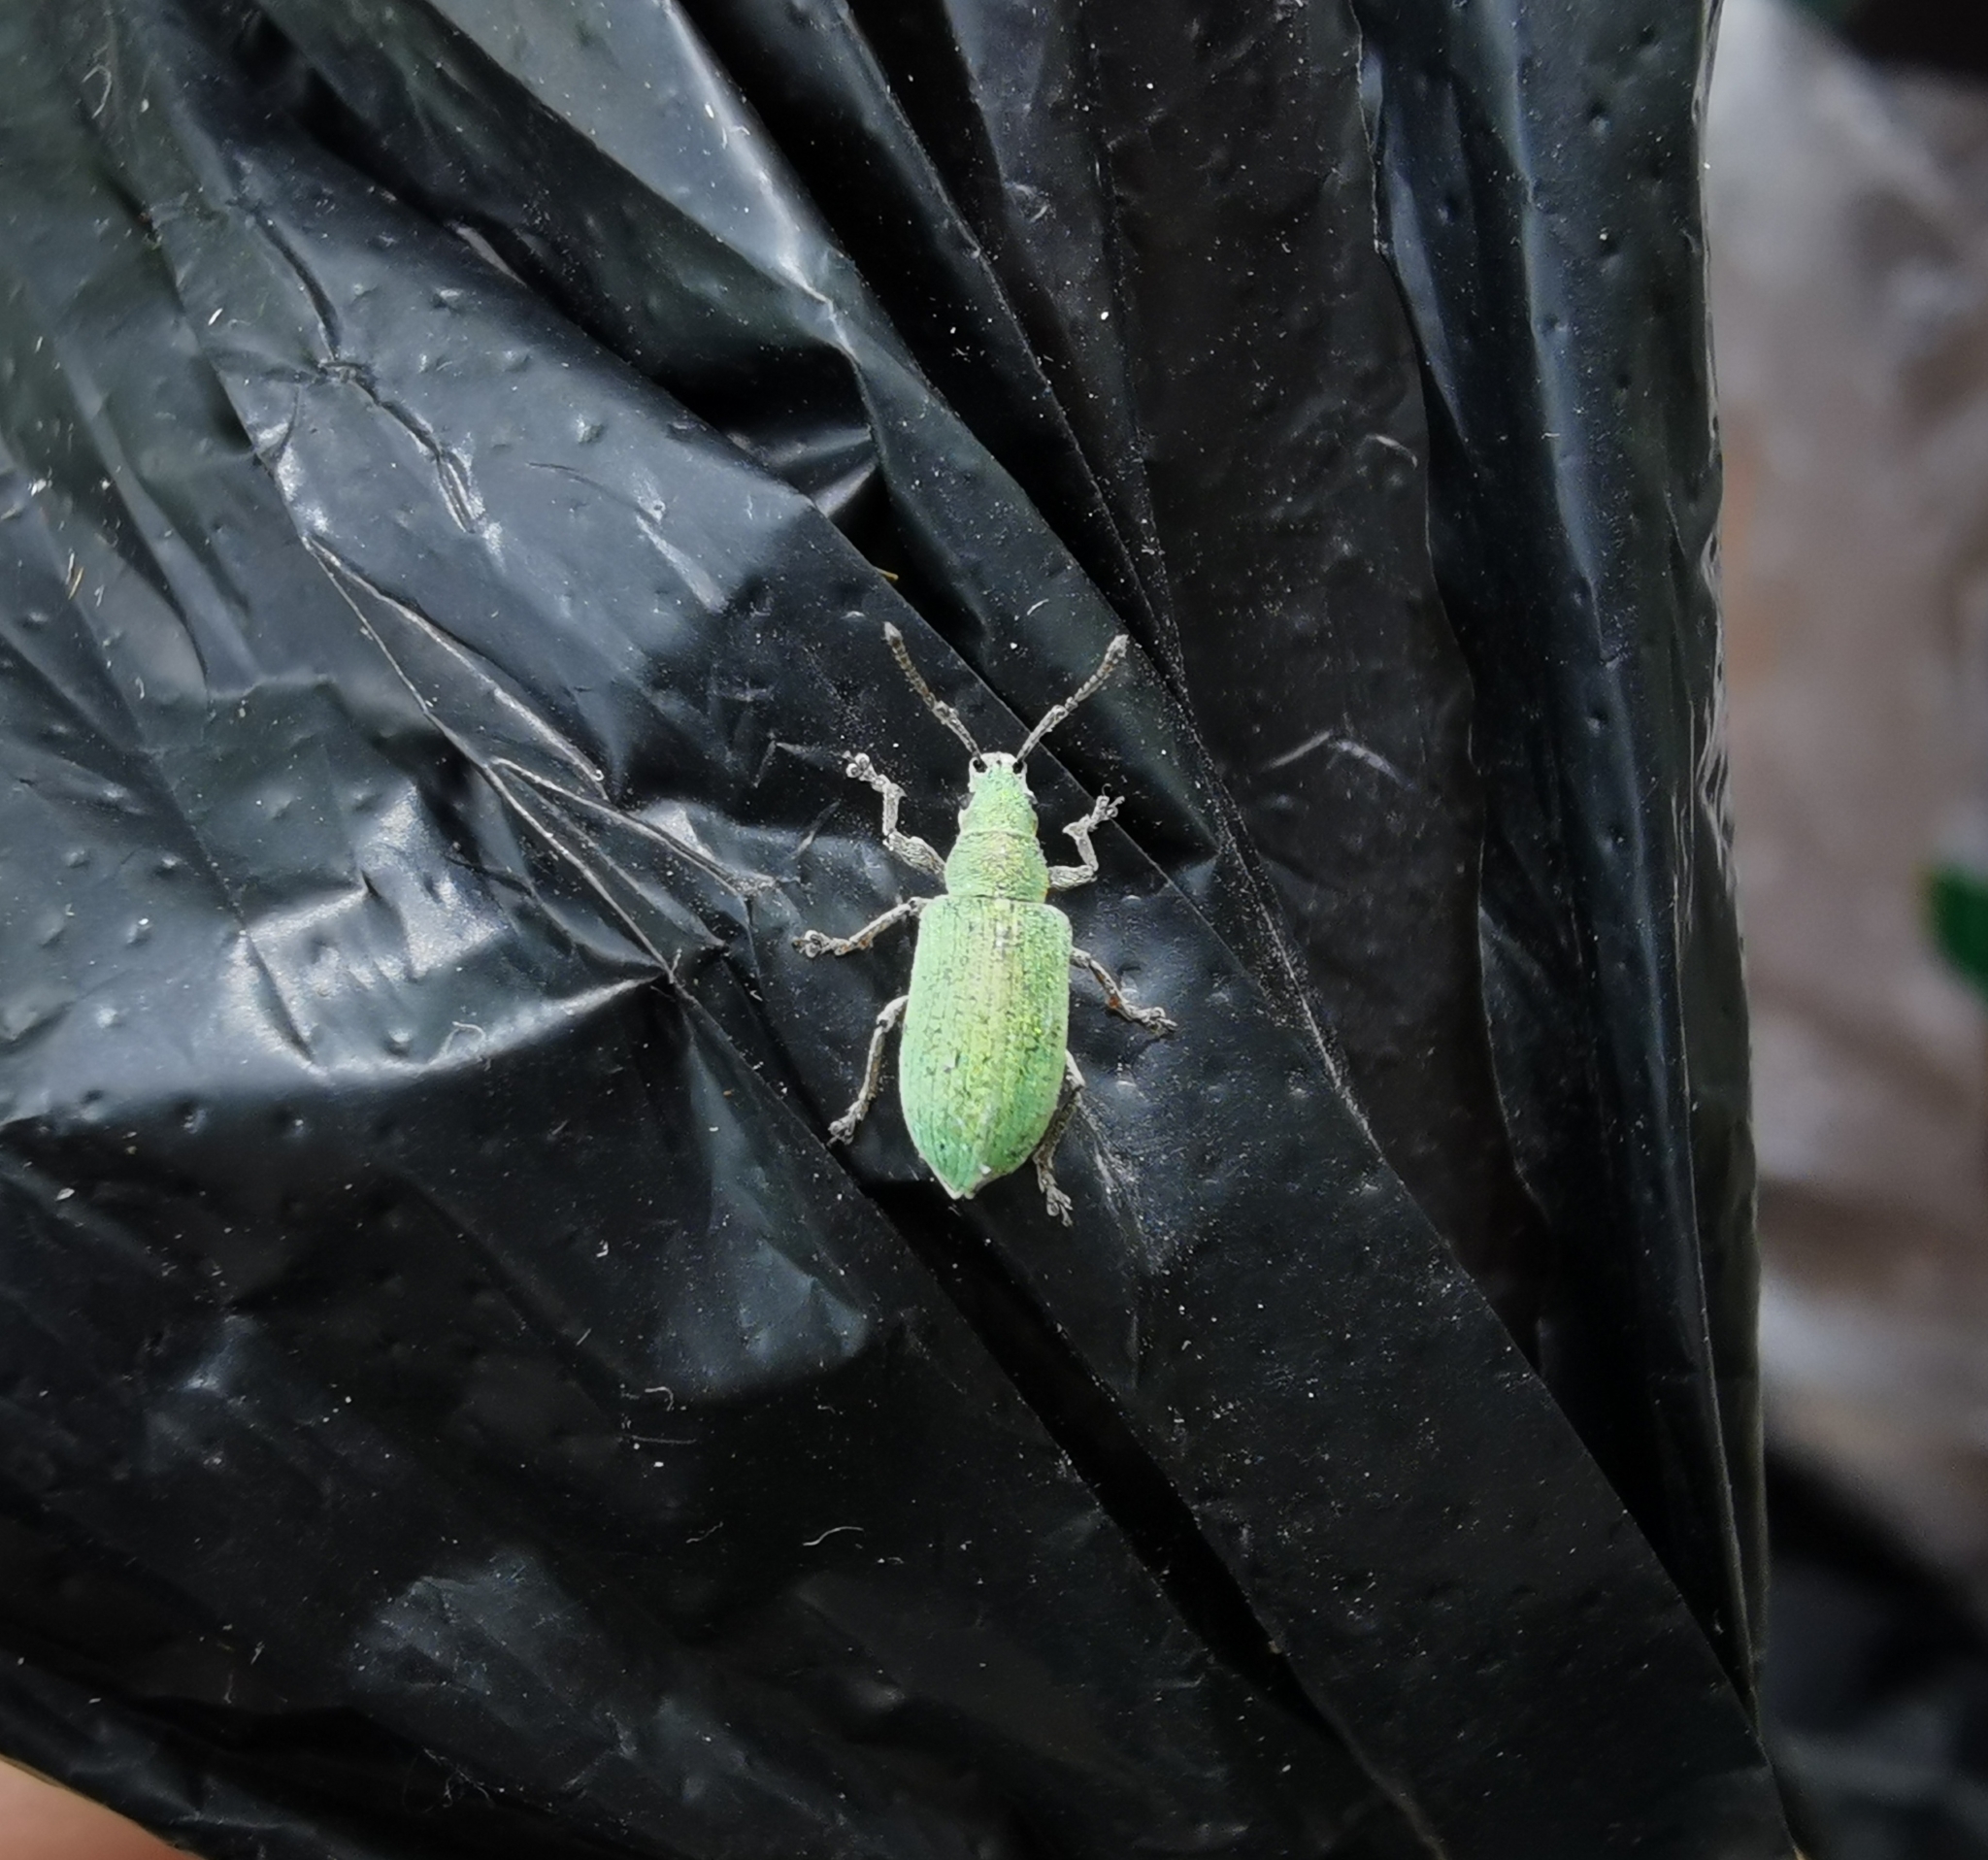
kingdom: Animalia
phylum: Arthropoda
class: Insecta
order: Coleoptera
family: Curculionidae
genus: Phyllobius
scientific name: Phyllobius virideaeris
